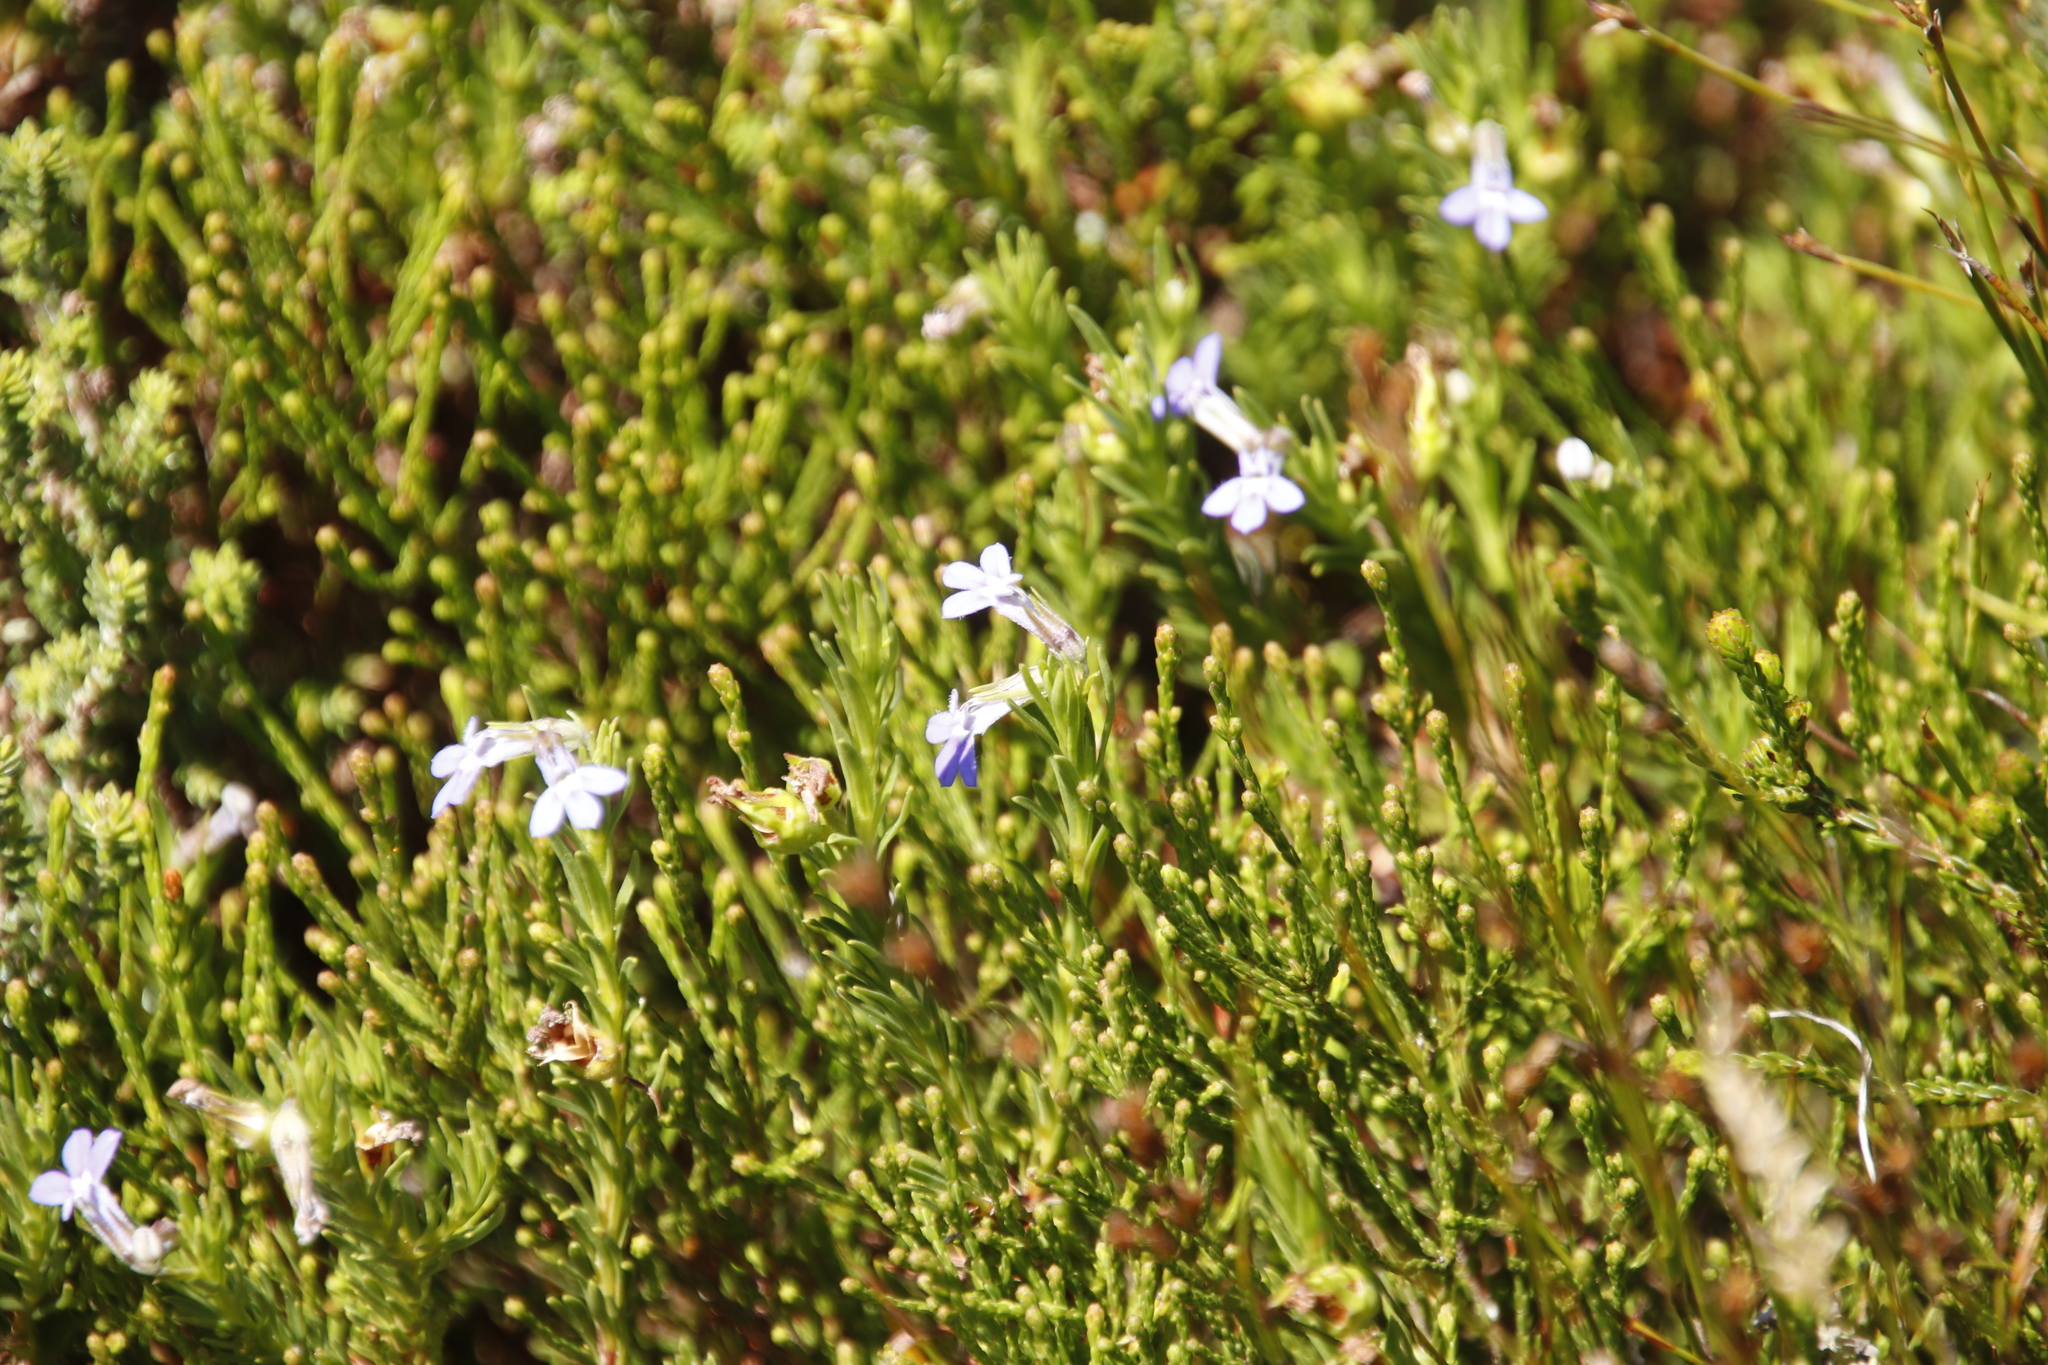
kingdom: Plantae
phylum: Tracheophyta
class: Magnoliopsida
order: Asterales
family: Campanulaceae
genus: Lobelia
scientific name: Lobelia pinifolia
